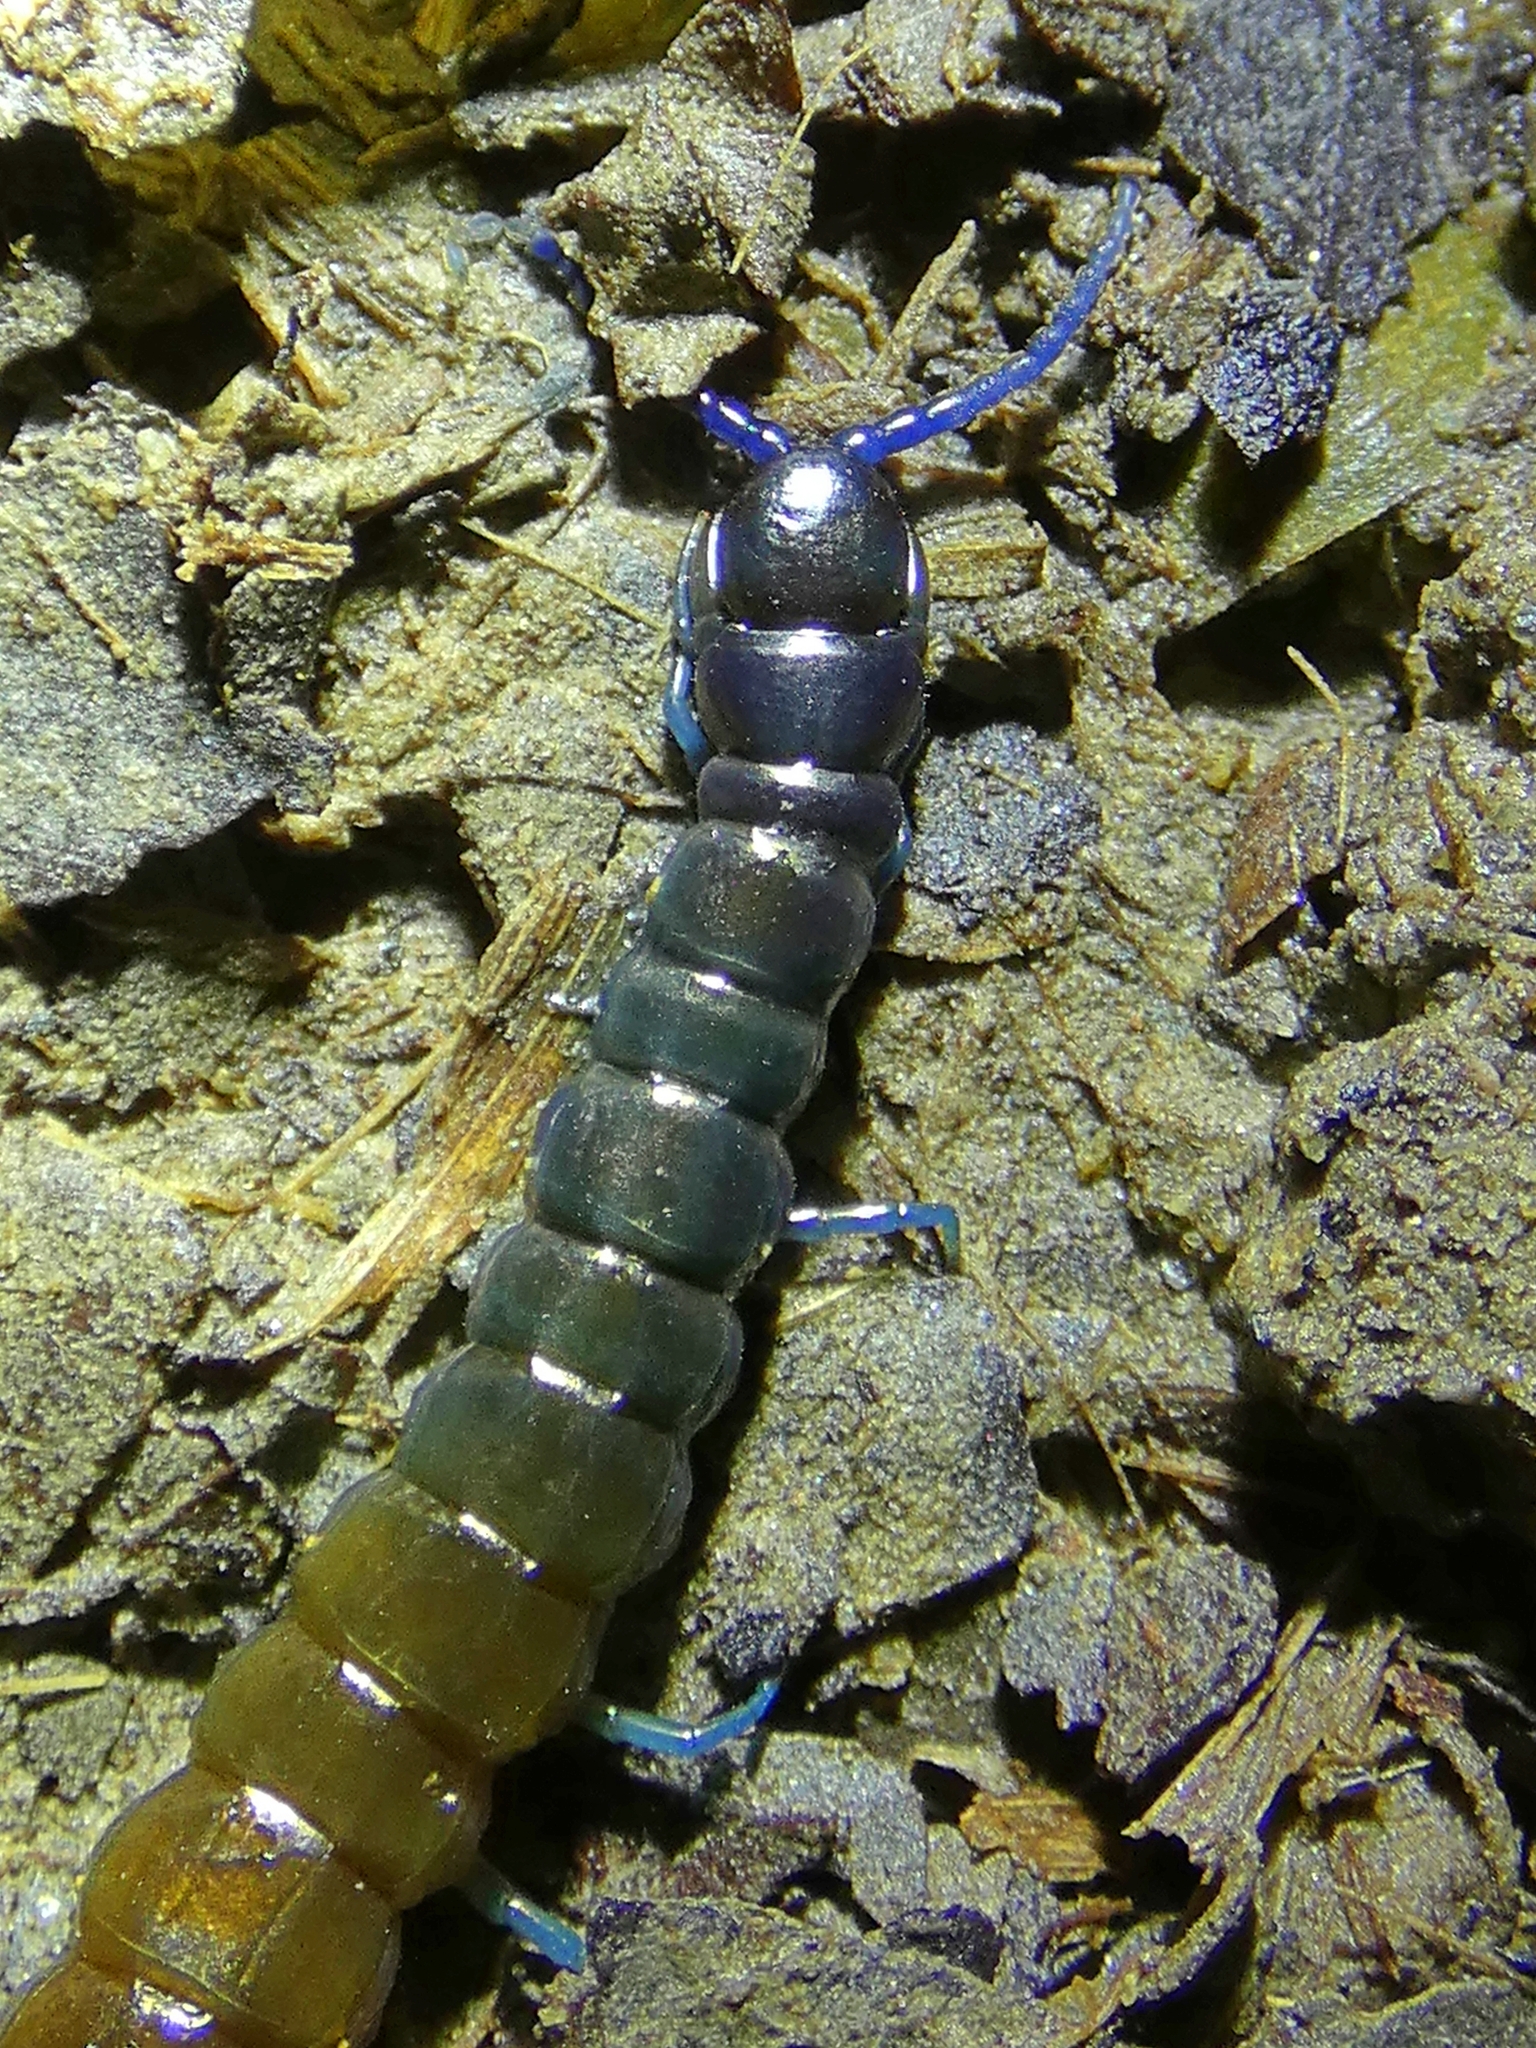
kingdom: Animalia
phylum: Arthropoda
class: Chilopoda
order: Scolopendromorpha
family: Scolopendridae
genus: Rhysida
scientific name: Rhysida nuda
